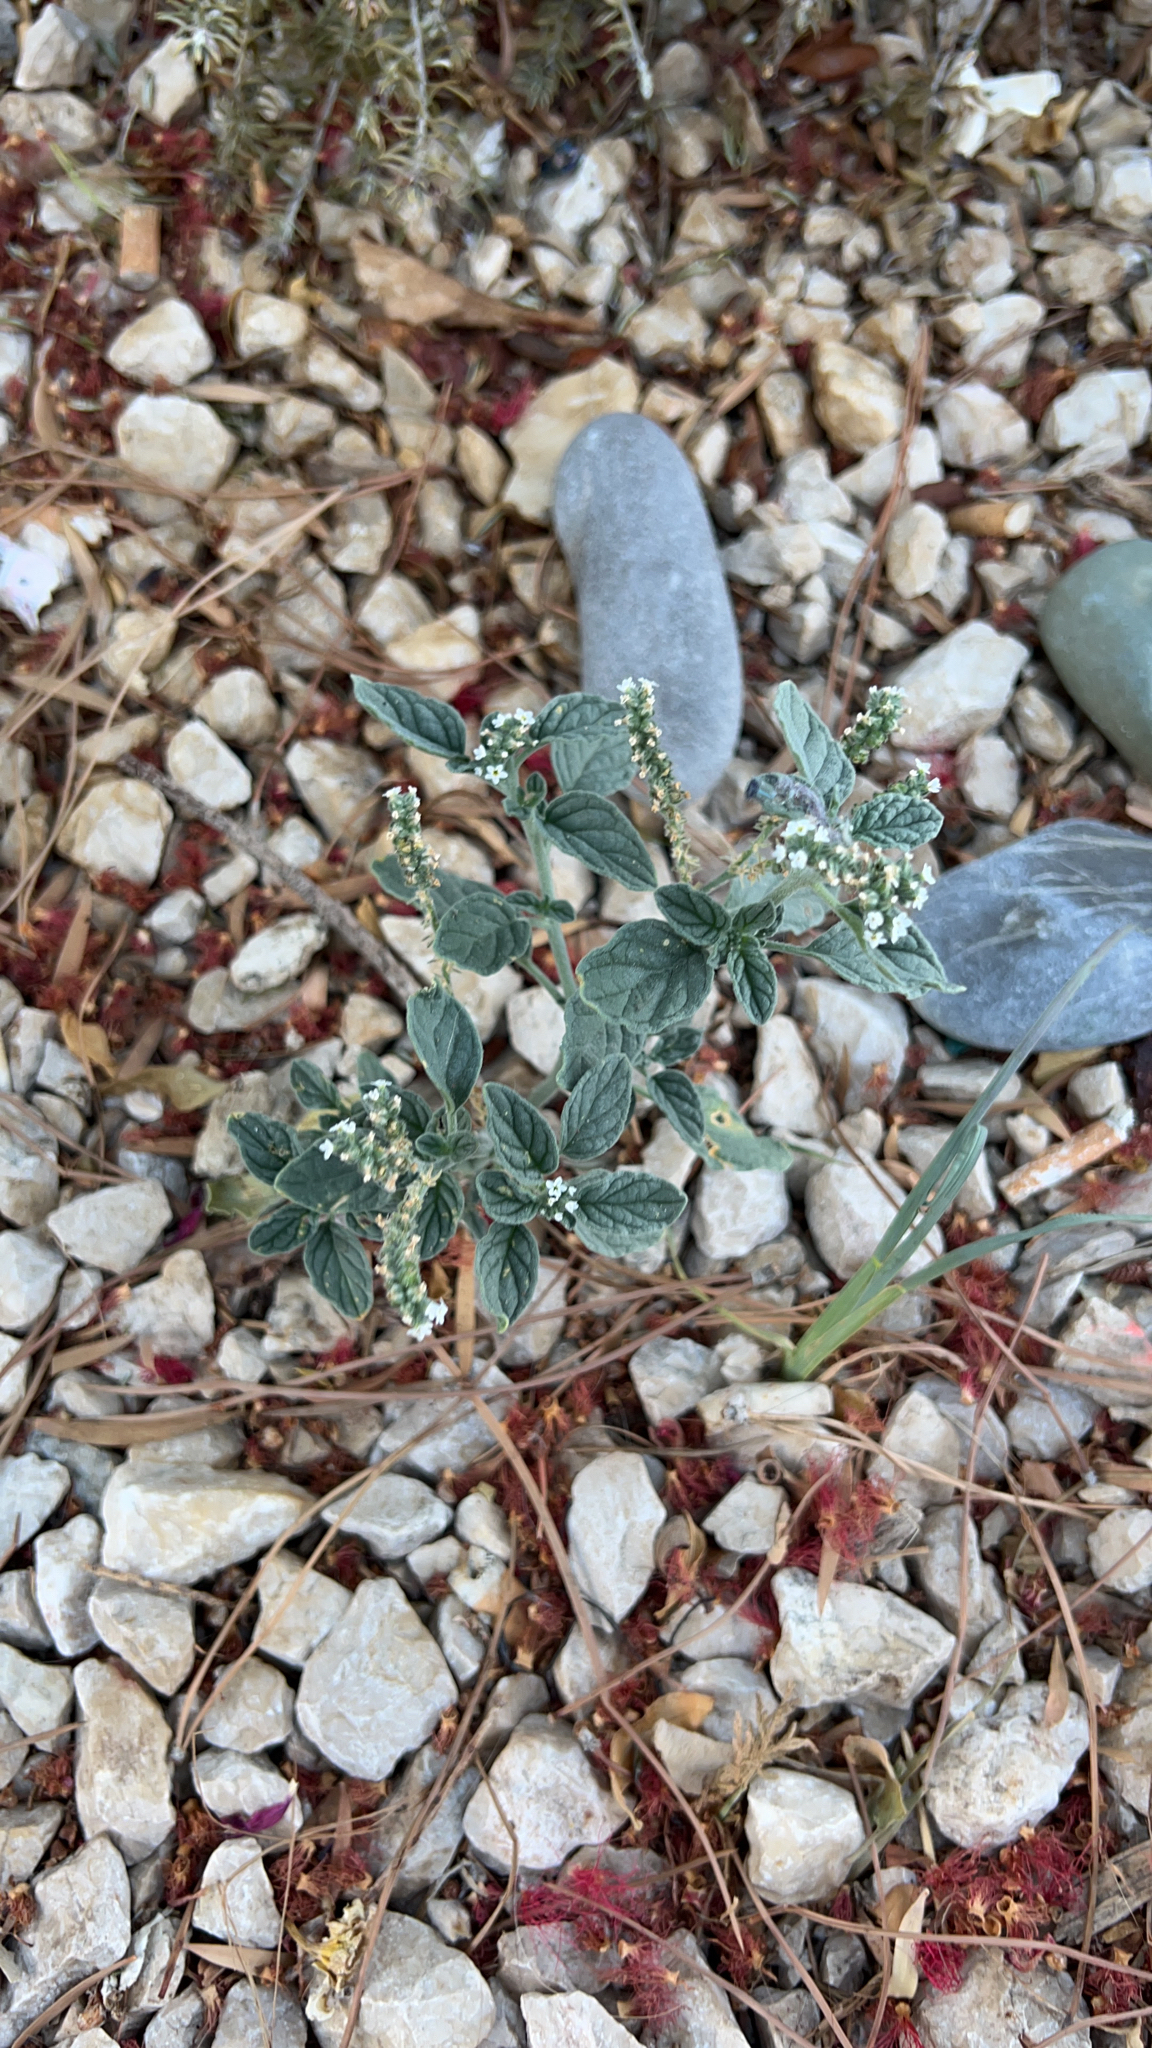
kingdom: Plantae
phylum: Tracheophyta
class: Magnoliopsida
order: Boraginales
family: Heliotropiaceae
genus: Heliotropium
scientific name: Heliotropium europaeum
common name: European heliotrope
